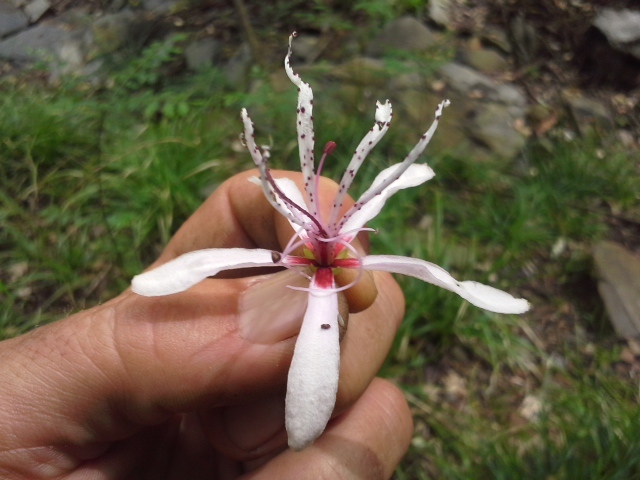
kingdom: Plantae
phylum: Tracheophyta
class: Magnoliopsida
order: Sapindales
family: Rutaceae
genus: Calodendrum
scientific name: Calodendrum capense
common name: Cape chestnut
